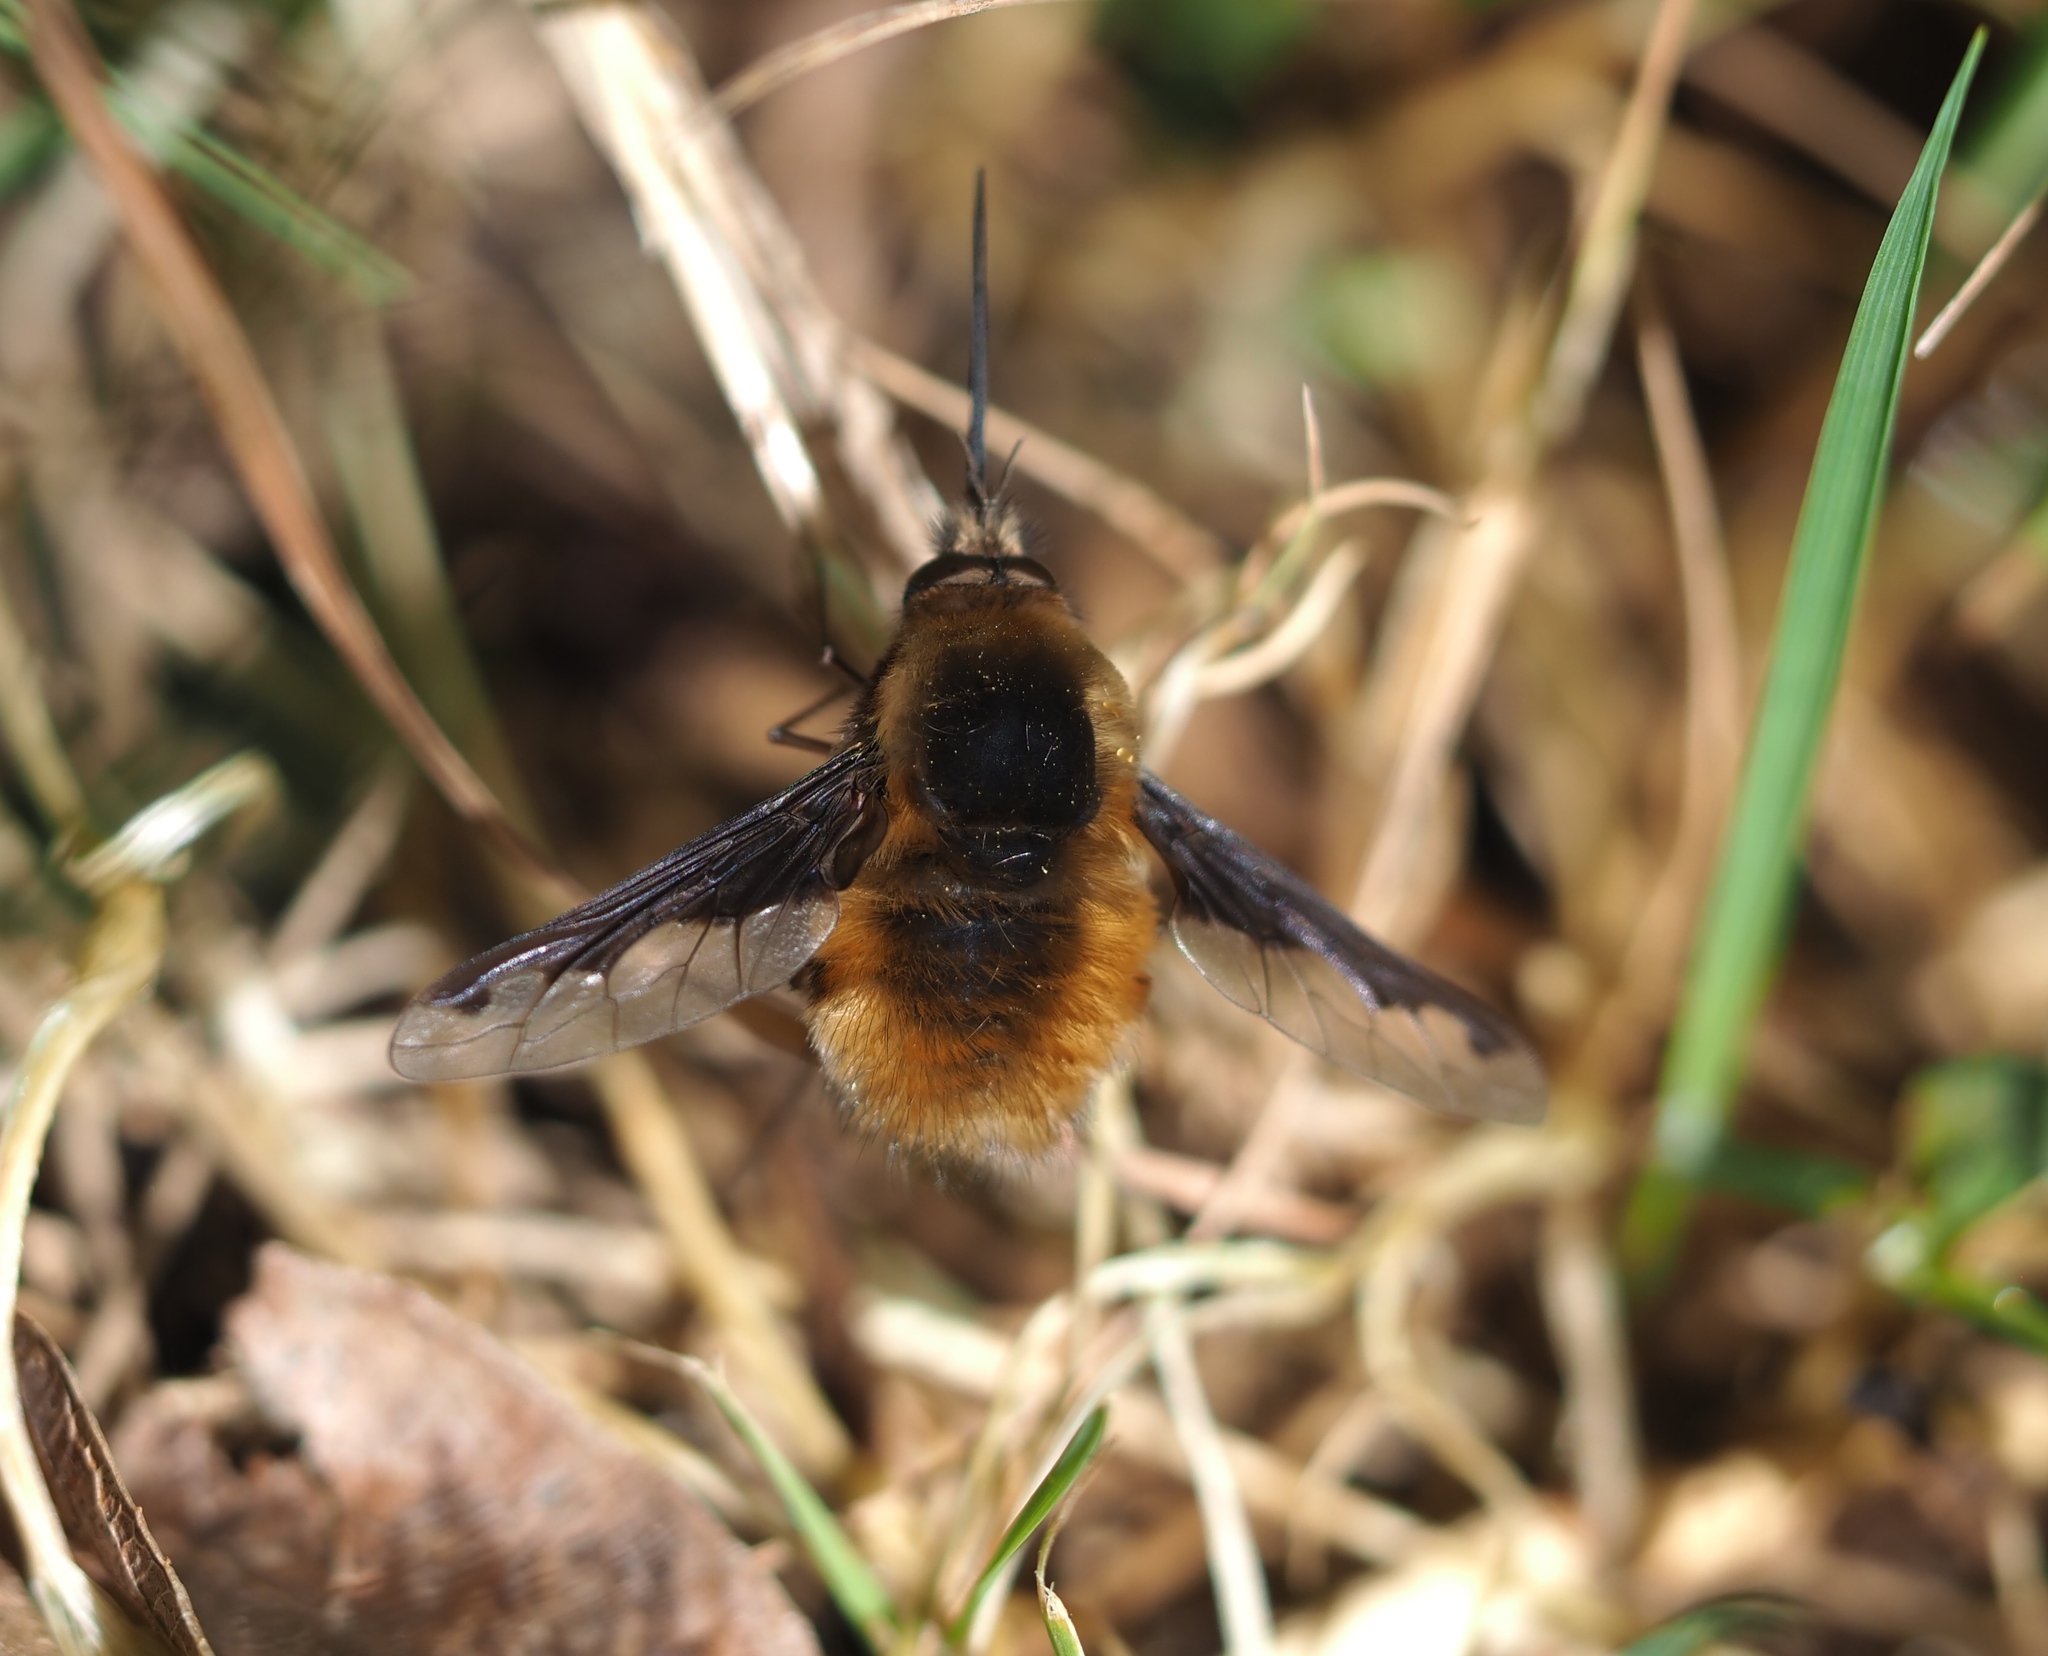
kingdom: Animalia
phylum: Arthropoda
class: Insecta
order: Diptera
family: Bombyliidae
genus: Bombylius
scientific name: Bombylius major
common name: Bee fly
